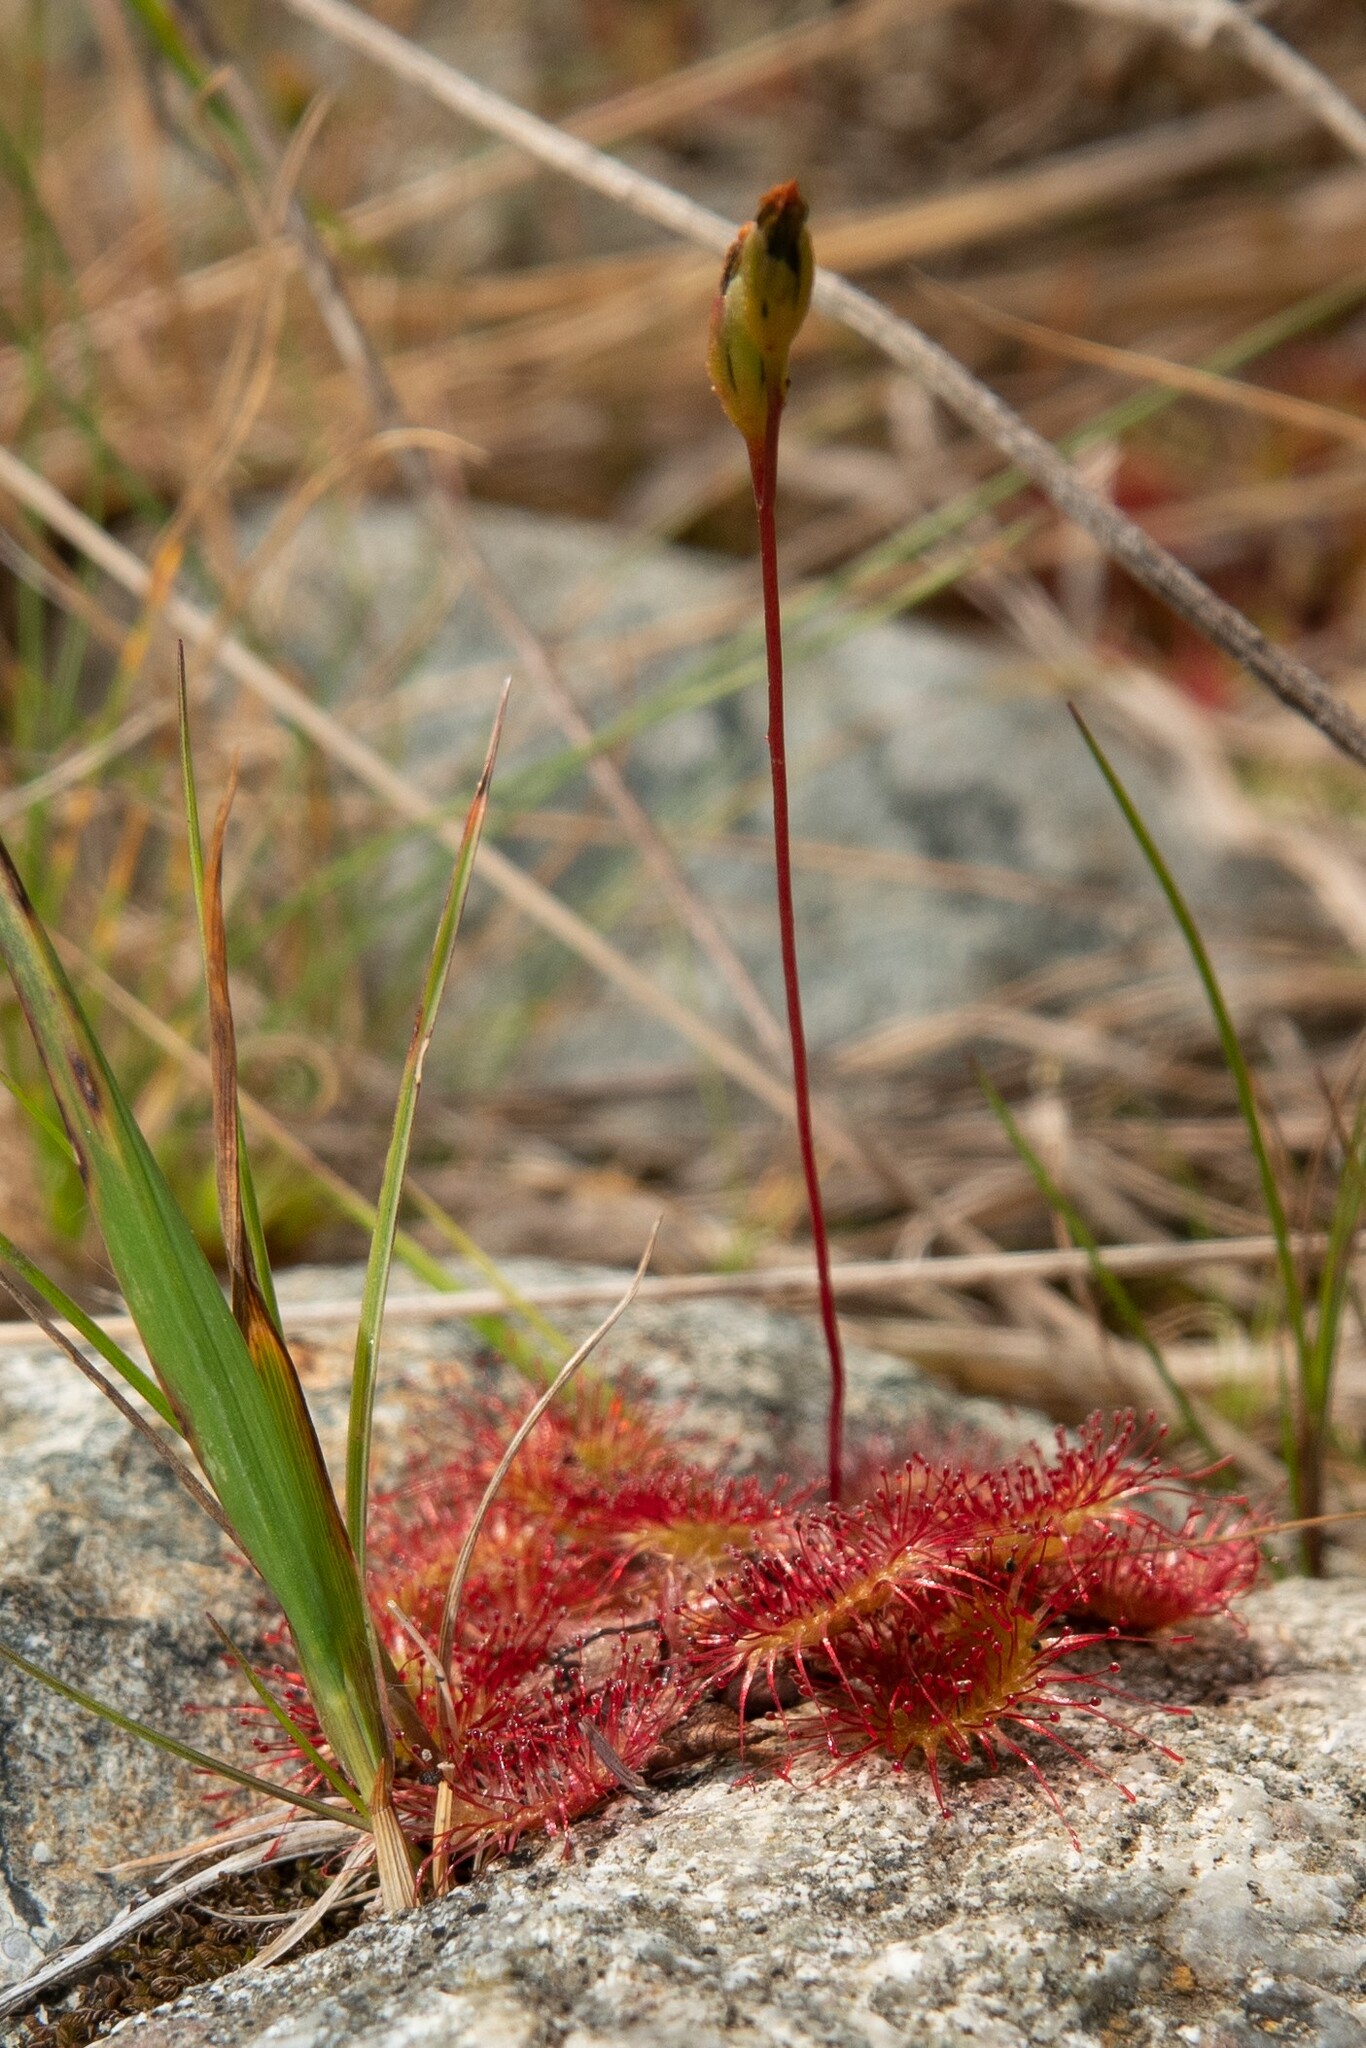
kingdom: Plantae
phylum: Tracheophyta
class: Magnoliopsida
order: Caryophyllales
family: Droseraceae
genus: Drosera
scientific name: Drosera rotundifolia
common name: Round-leaved sundew
